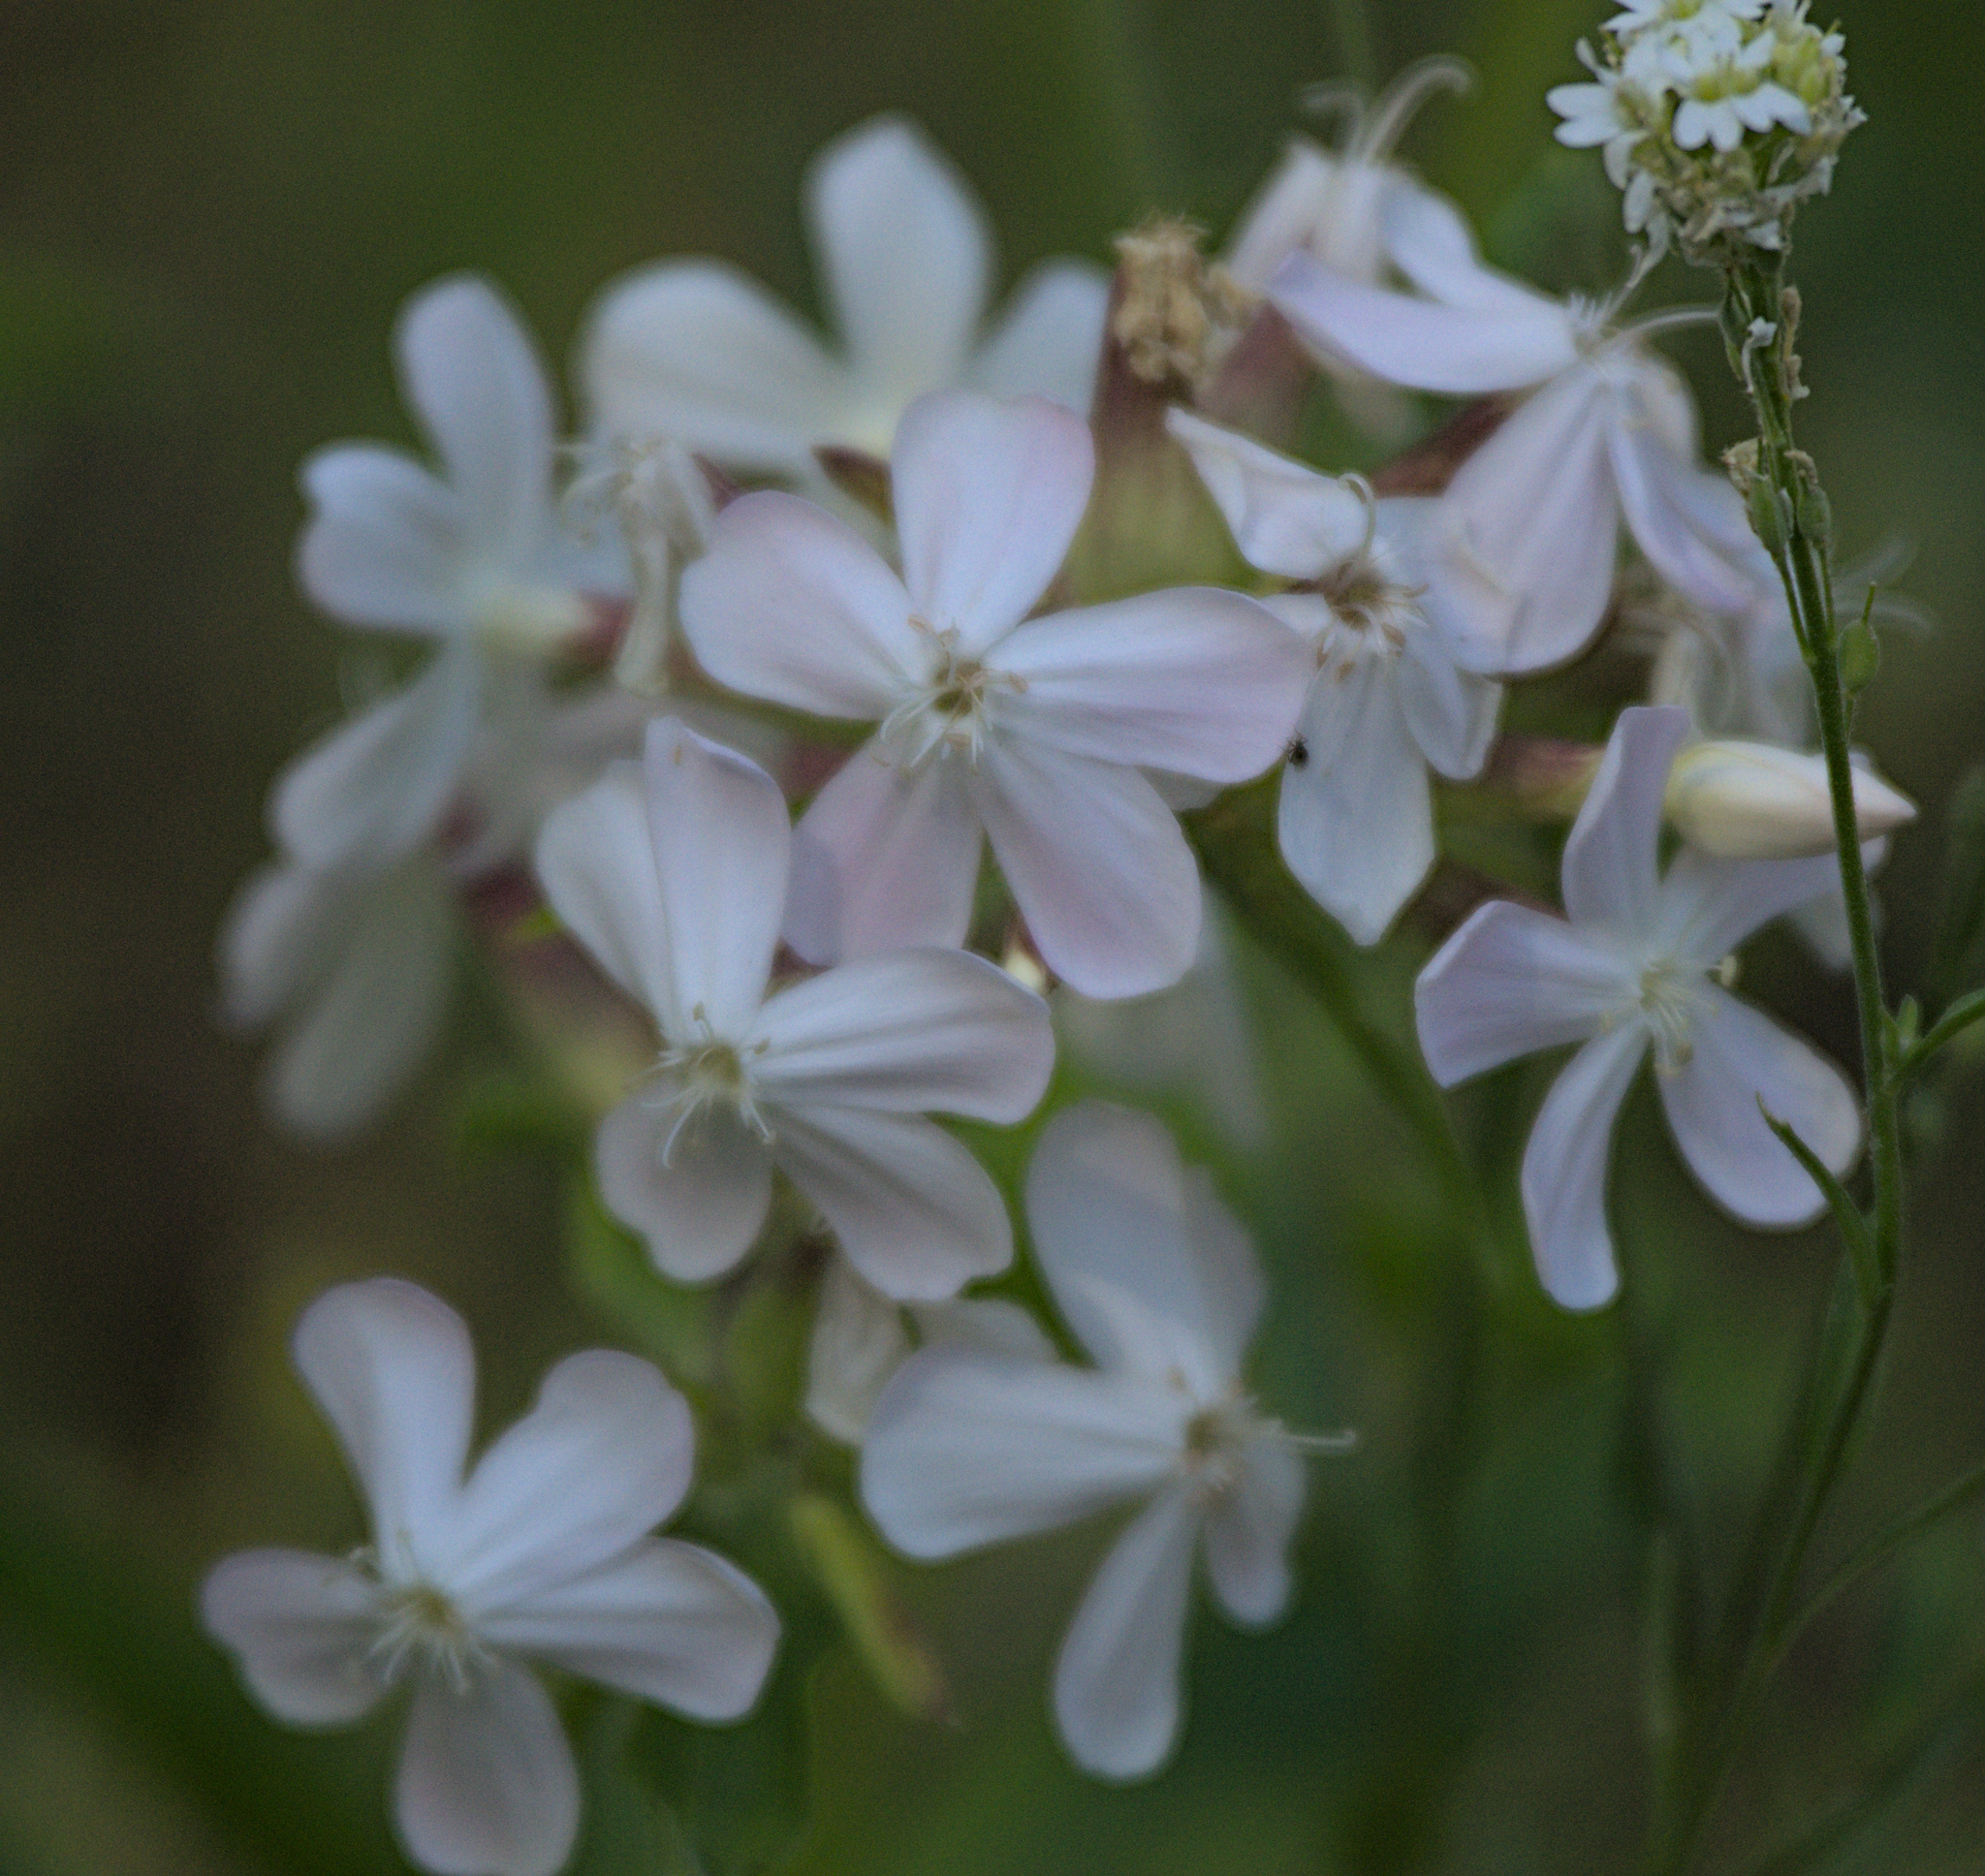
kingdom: Plantae
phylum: Tracheophyta
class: Magnoliopsida
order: Caryophyllales
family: Caryophyllaceae
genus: Saponaria
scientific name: Saponaria officinalis
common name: Soapwort
